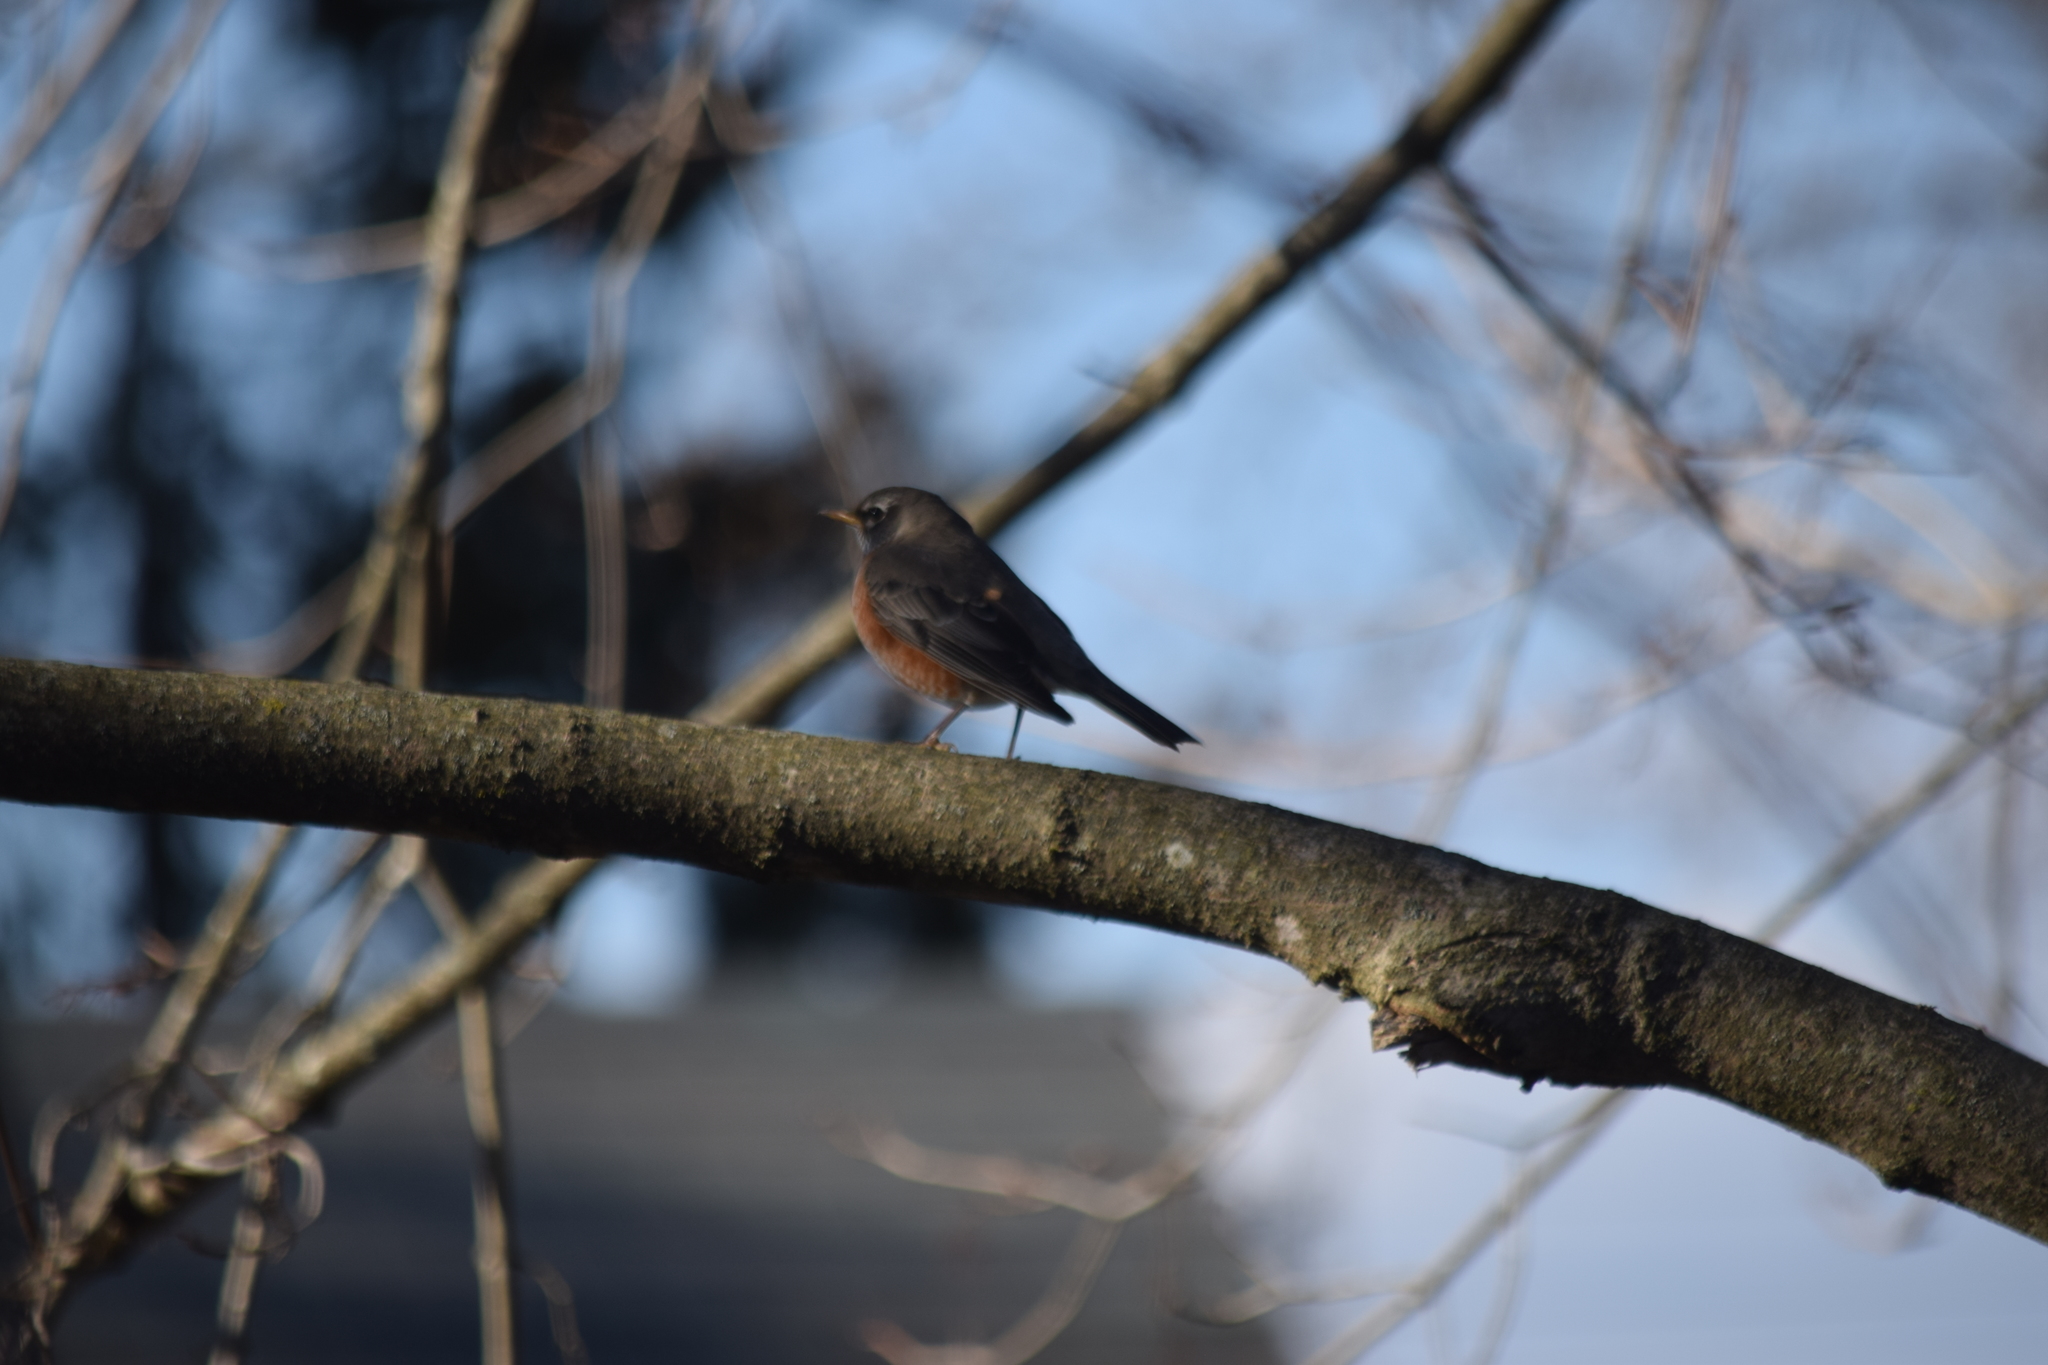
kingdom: Animalia
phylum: Chordata
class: Aves
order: Passeriformes
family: Turdidae
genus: Turdus
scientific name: Turdus migratorius
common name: American robin
